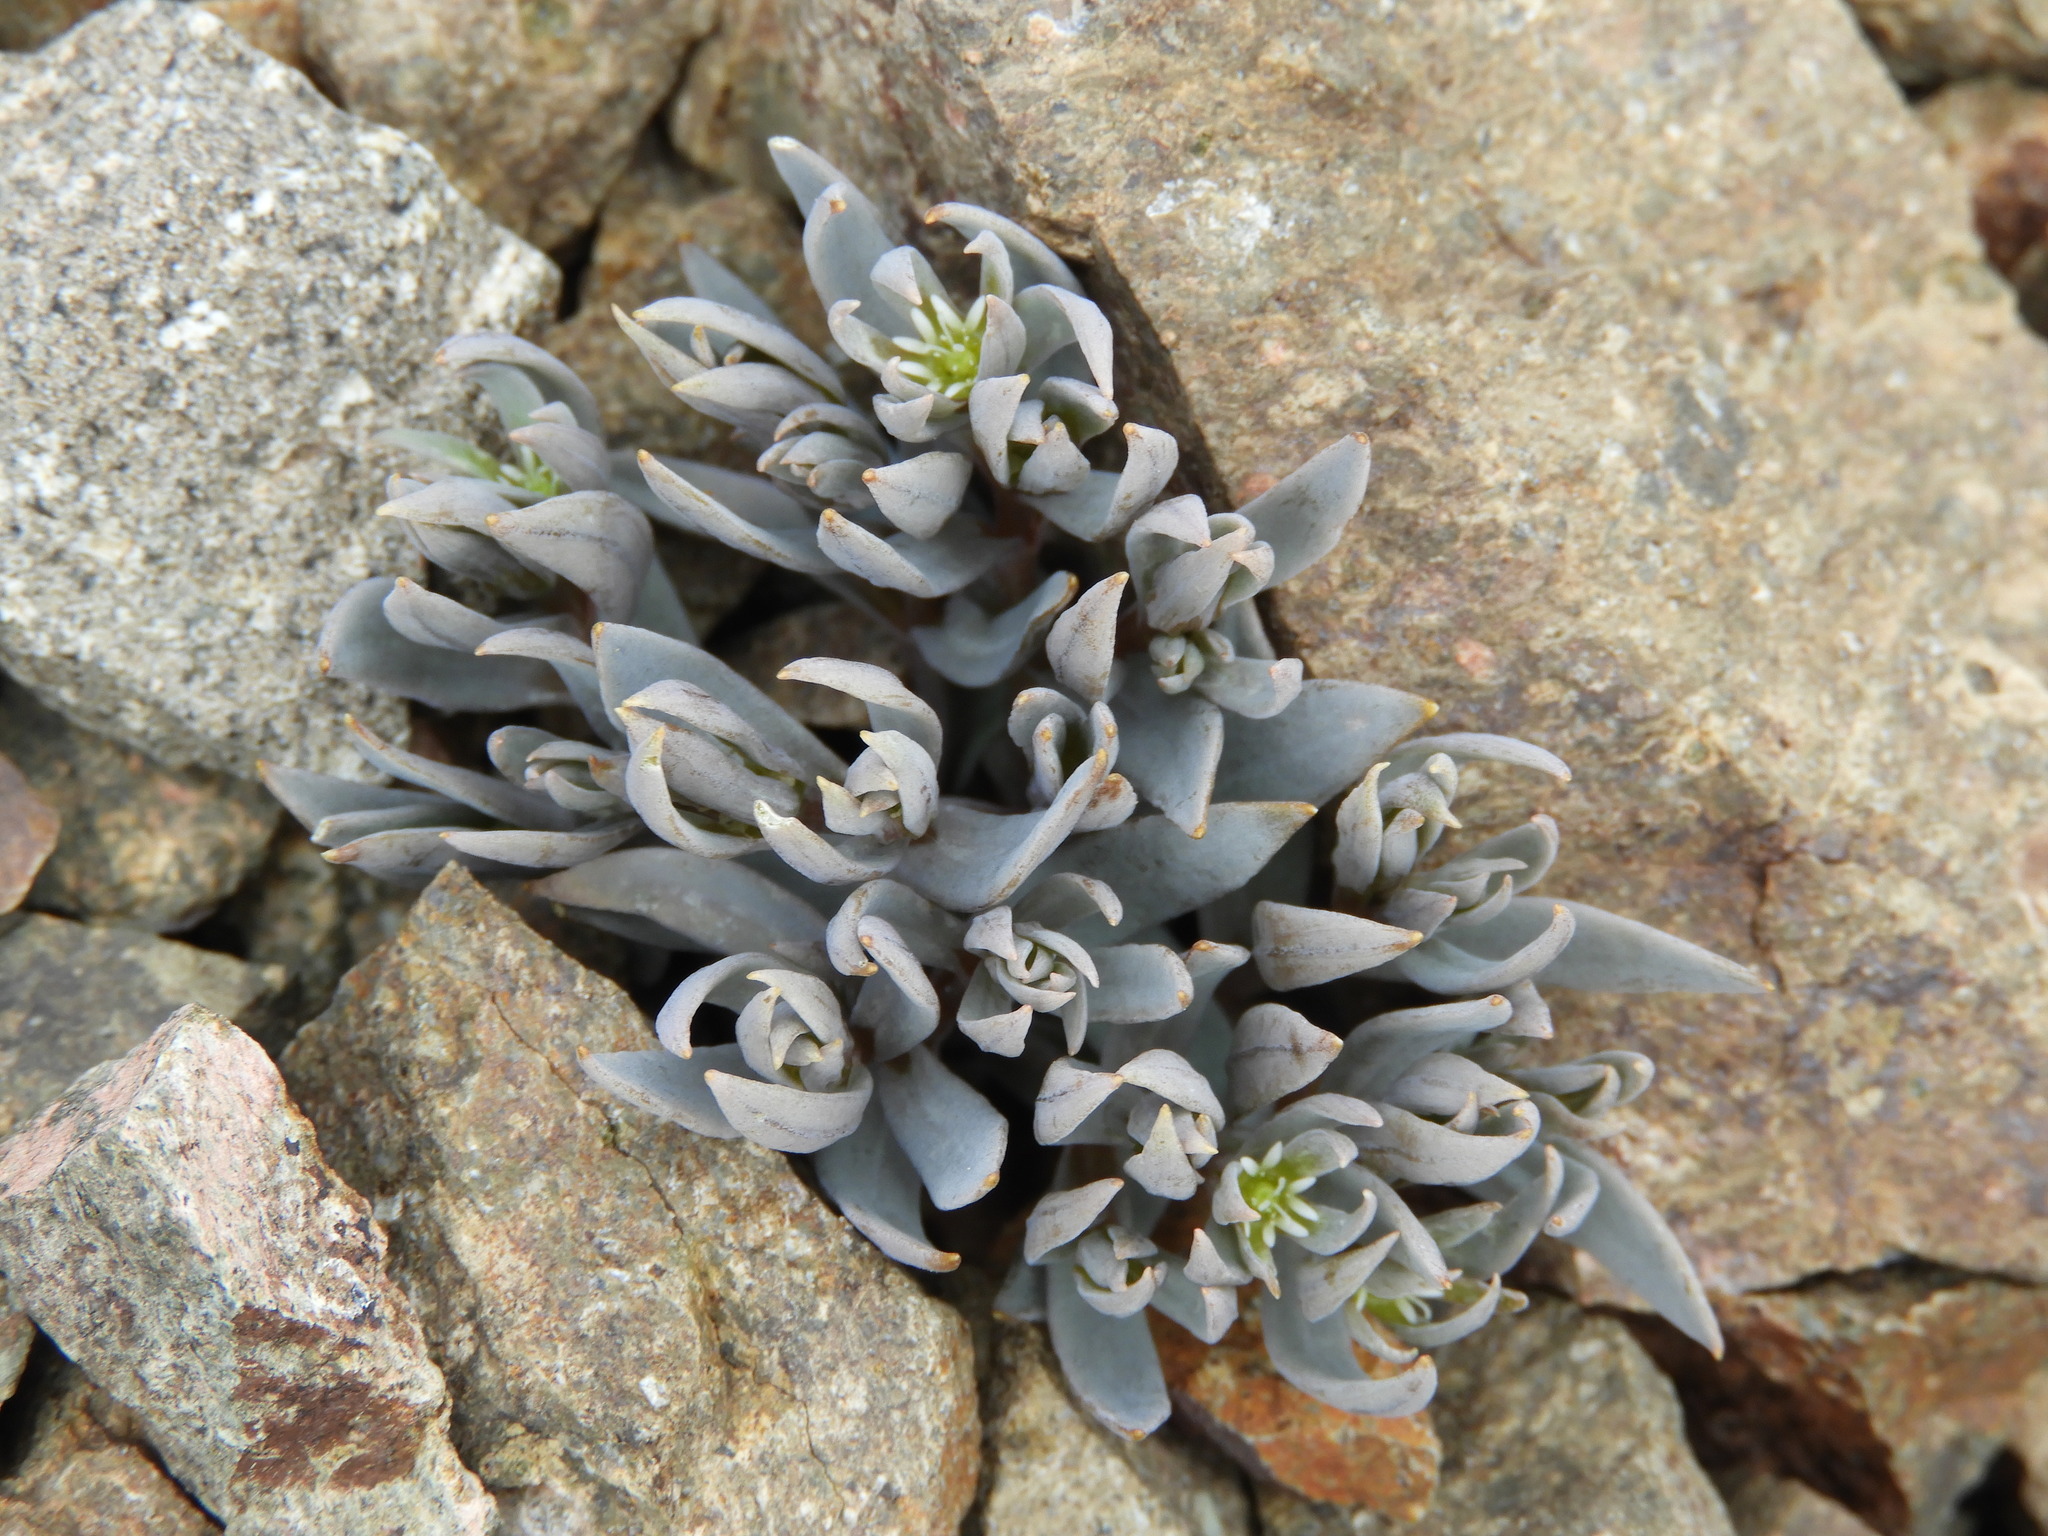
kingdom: Plantae
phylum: Tracheophyta
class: Magnoliopsida
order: Caryophyllales
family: Caryophyllaceae
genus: Stellaria
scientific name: Stellaria roughii
